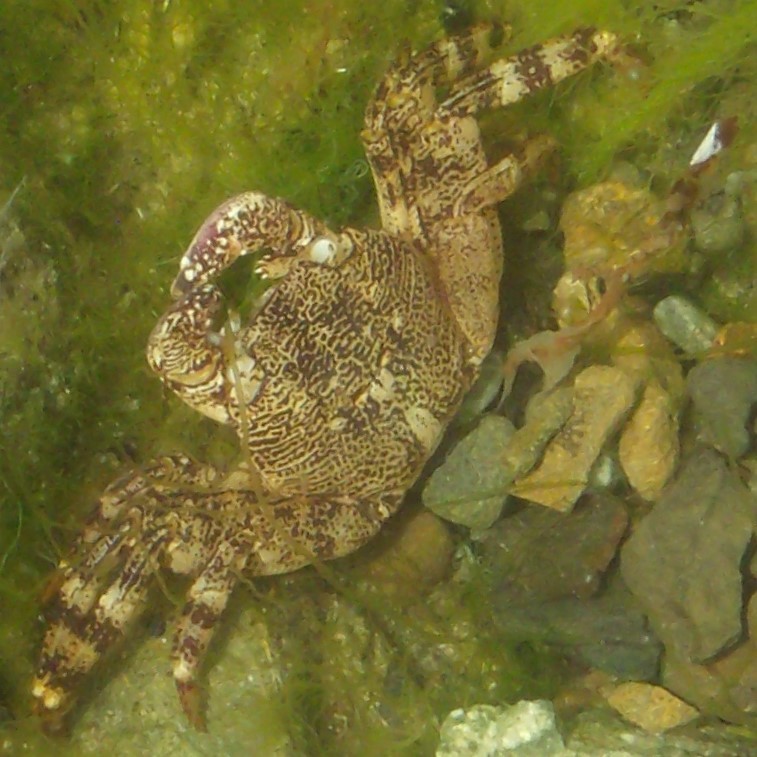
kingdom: Animalia
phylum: Arthropoda
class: Malacostraca
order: Decapoda
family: Grapsidae
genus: Leptograpsus
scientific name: Leptograpsus variegatus
